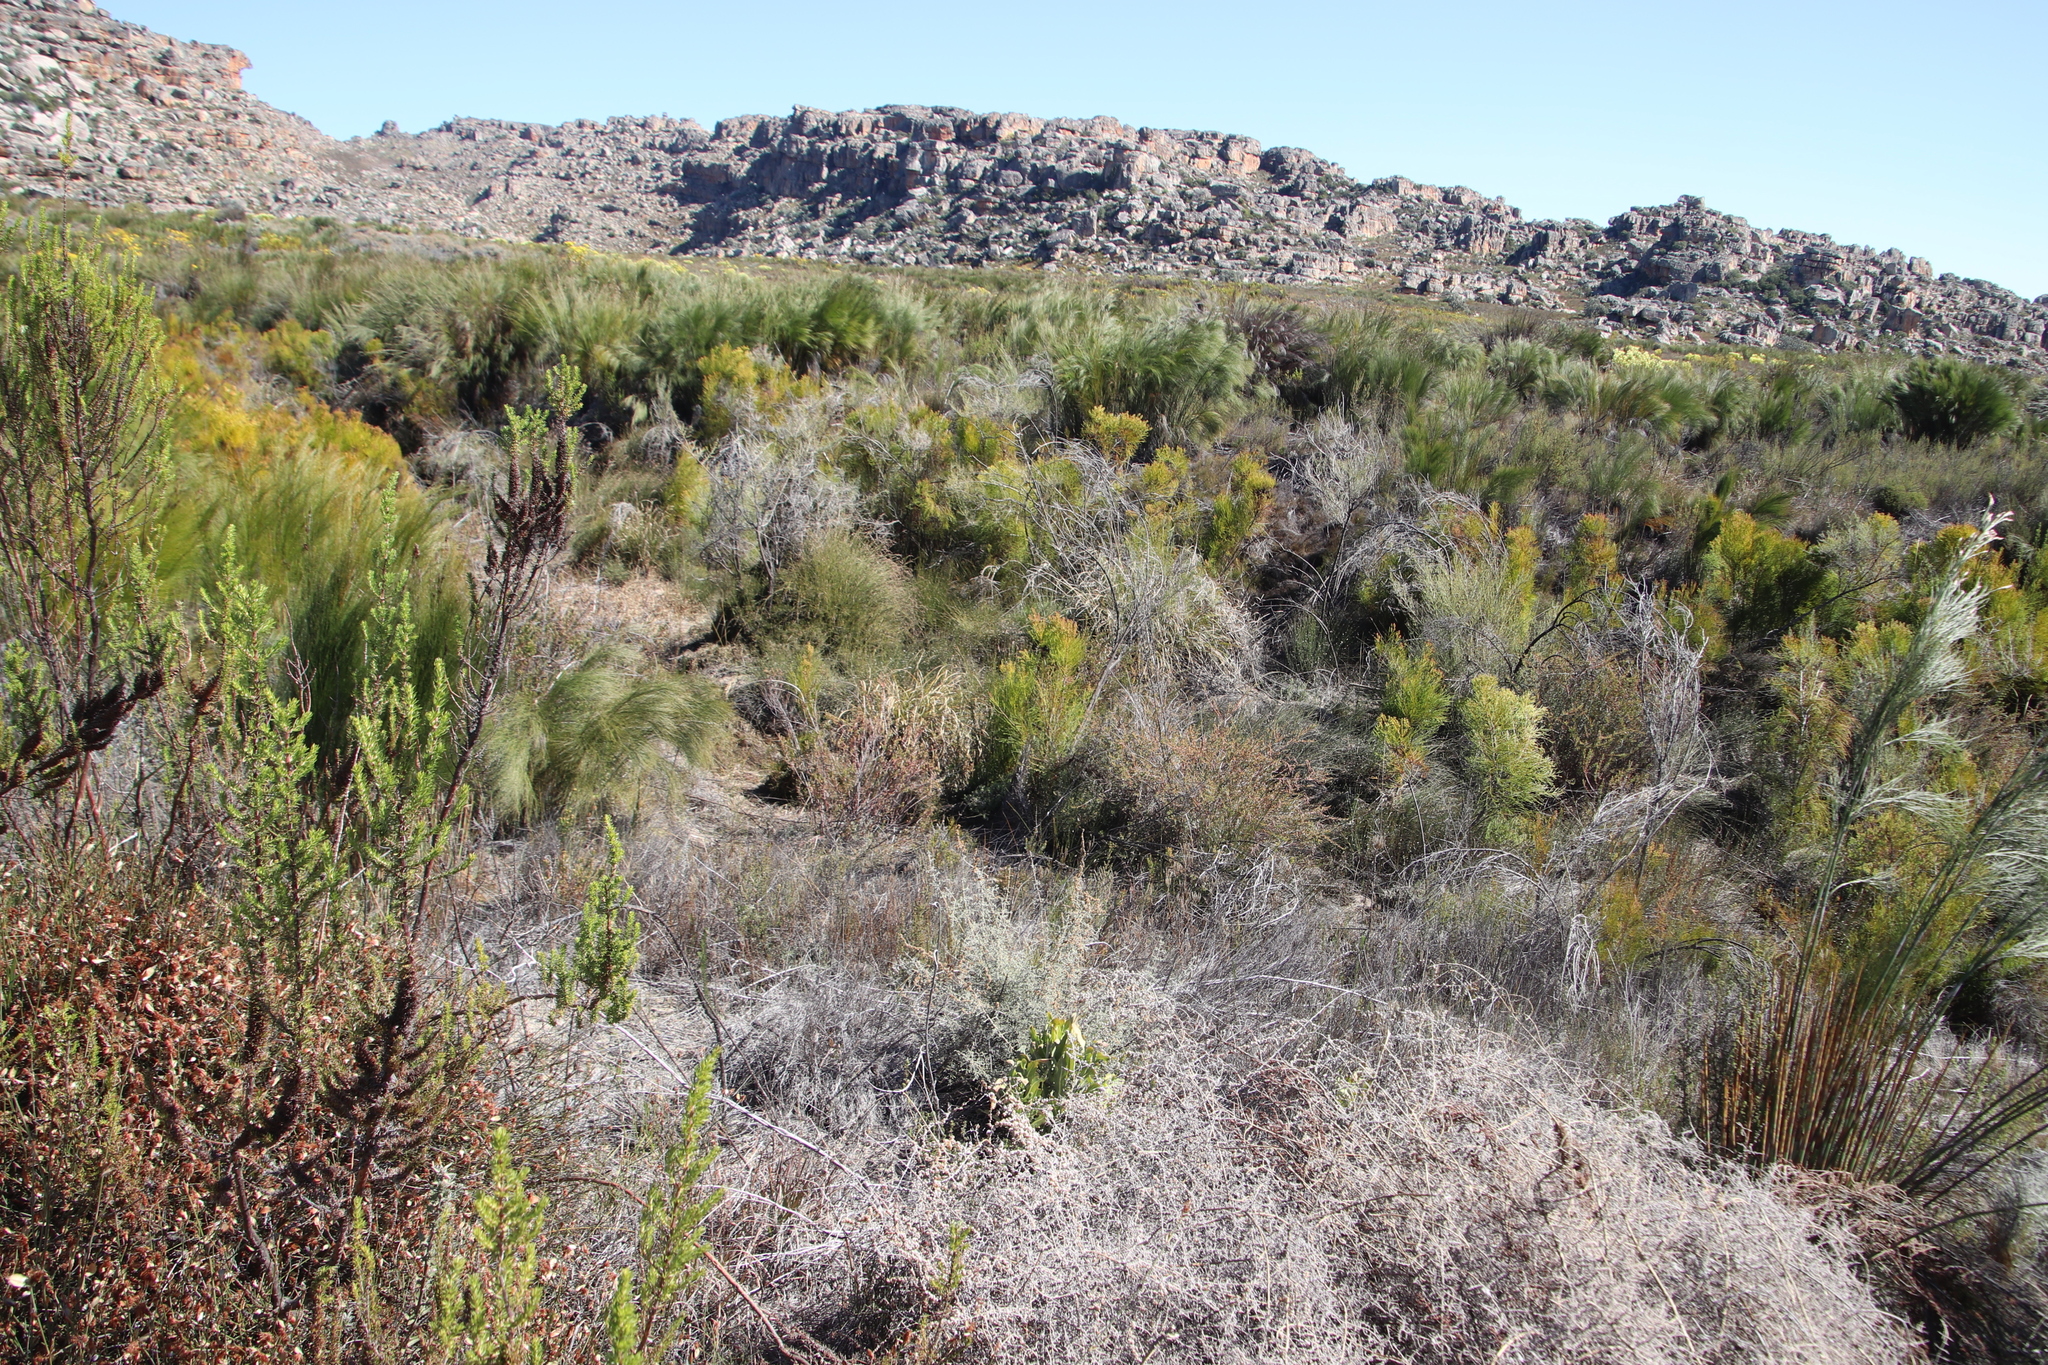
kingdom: Plantae
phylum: Tracheophyta
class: Magnoliopsida
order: Bruniales
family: Bruniaceae
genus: Berzelia
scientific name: Berzelia lanuginosa
